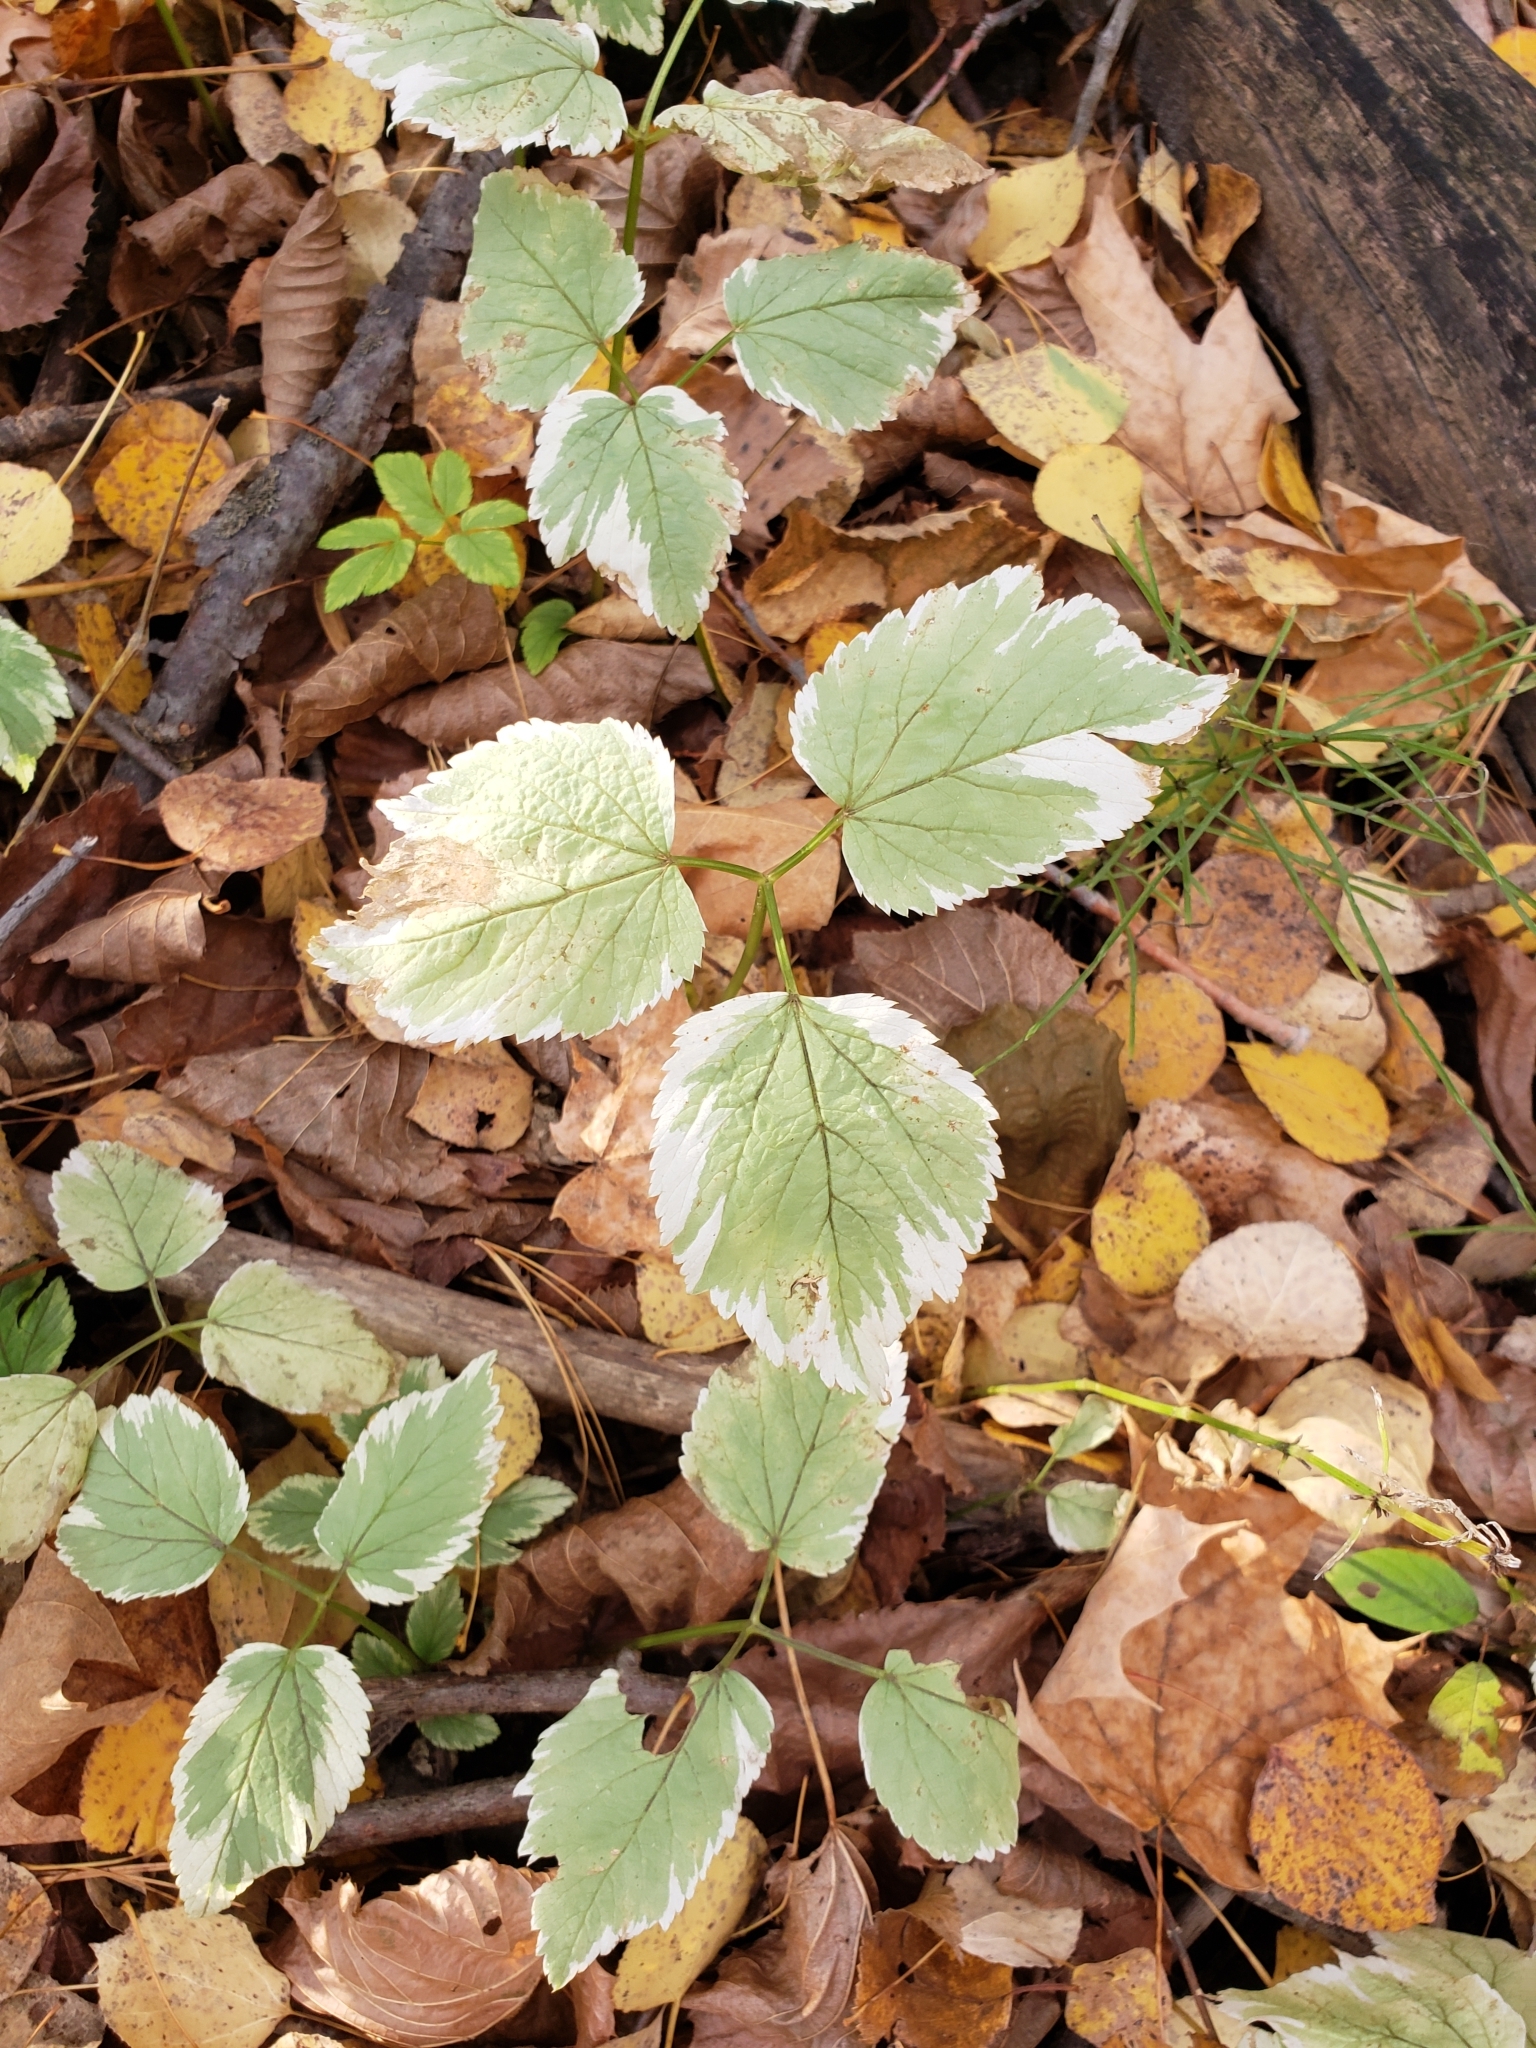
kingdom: Plantae
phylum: Tracheophyta
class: Magnoliopsida
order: Apiales
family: Apiaceae
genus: Aegopodium
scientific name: Aegopodium podagraria
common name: Ground-elder
